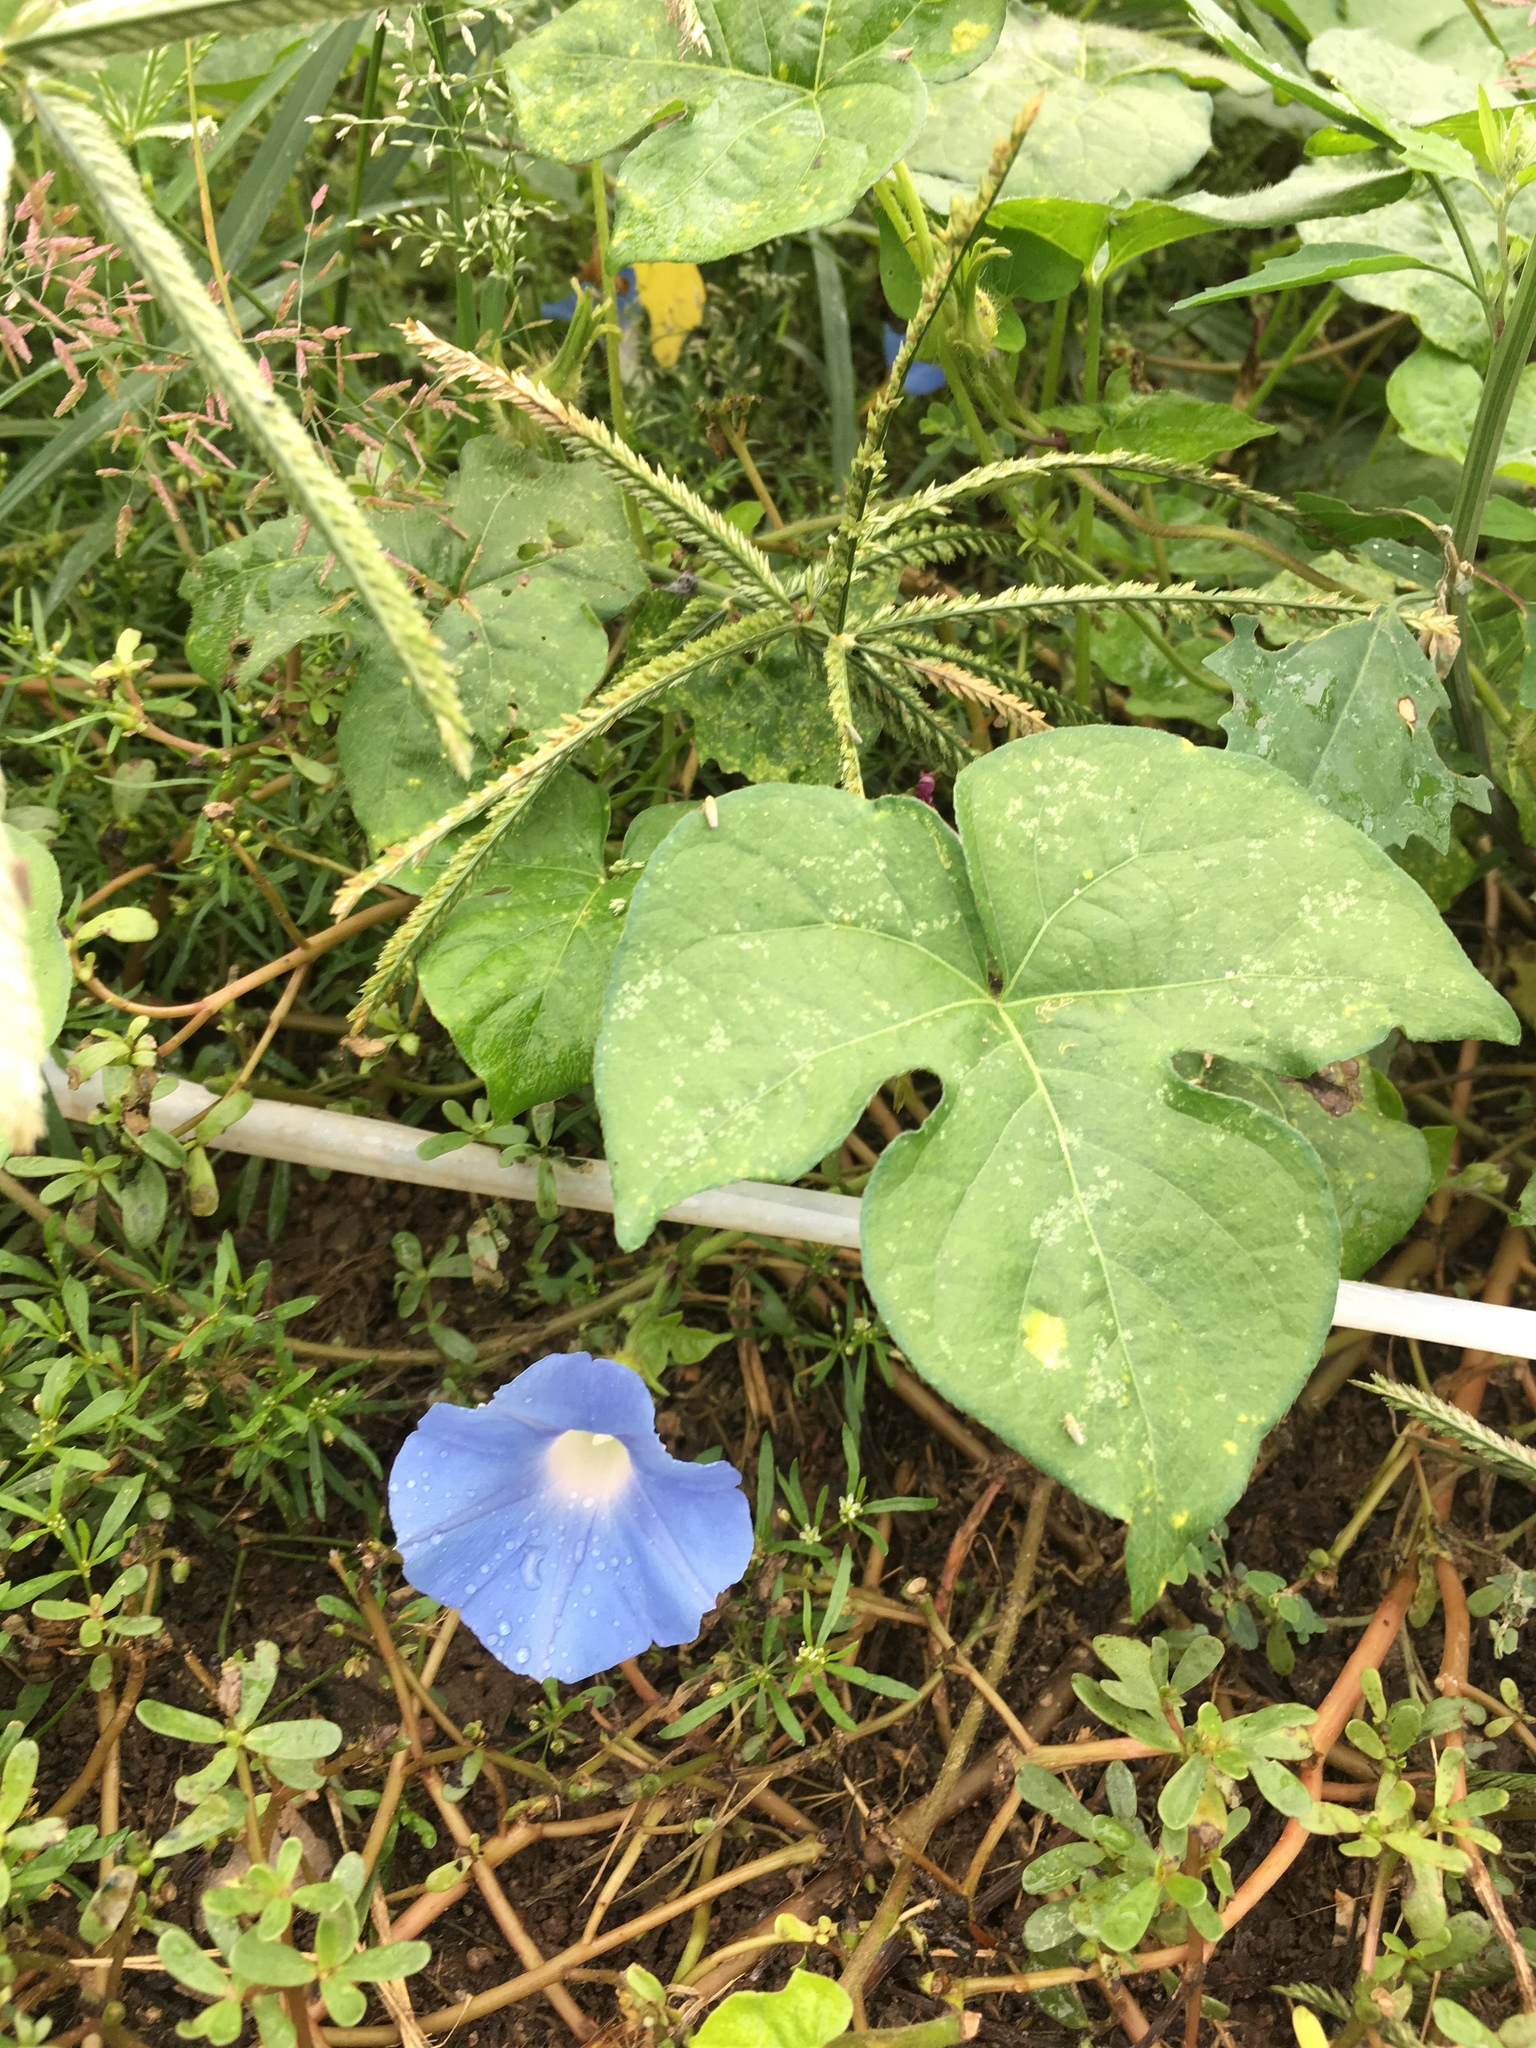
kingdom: Plantae
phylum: Tracheophyta
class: Magnoliopsida
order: Solanales
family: Convolvulaceae
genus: Ipomoea
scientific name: Ipomoea hederacea
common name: Ivy-leaved morning-glory
